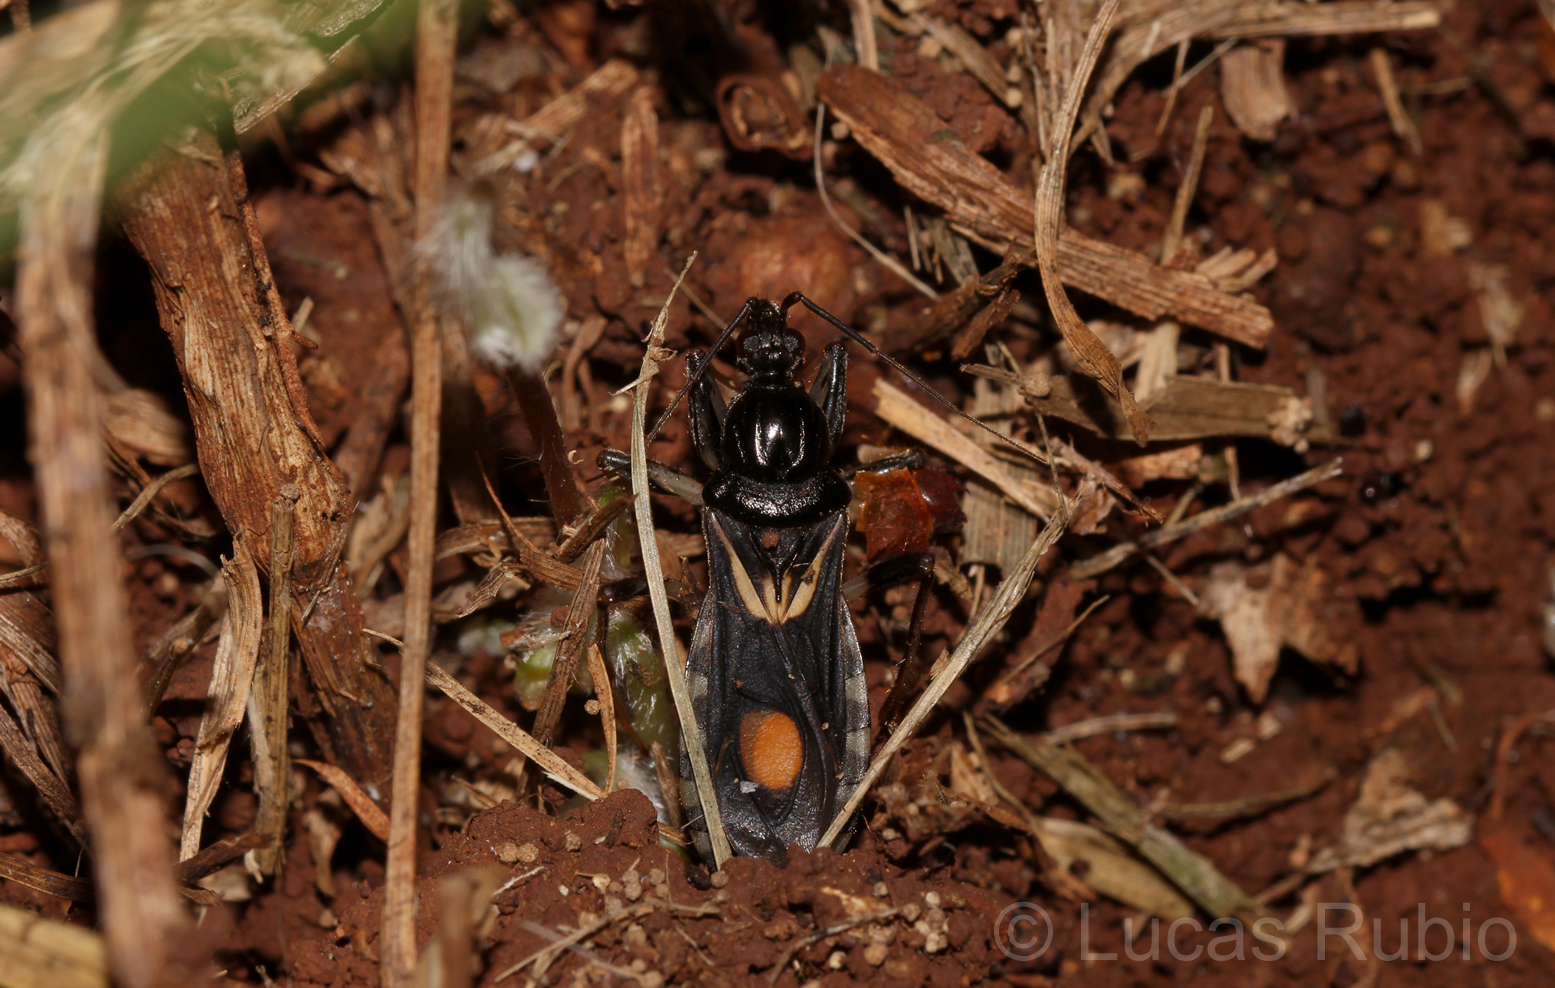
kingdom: Animalia
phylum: Arthropoda
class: Insecta
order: Hemiptera
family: Reduviidae
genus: Rasahus
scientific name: Rasahus hamatus
